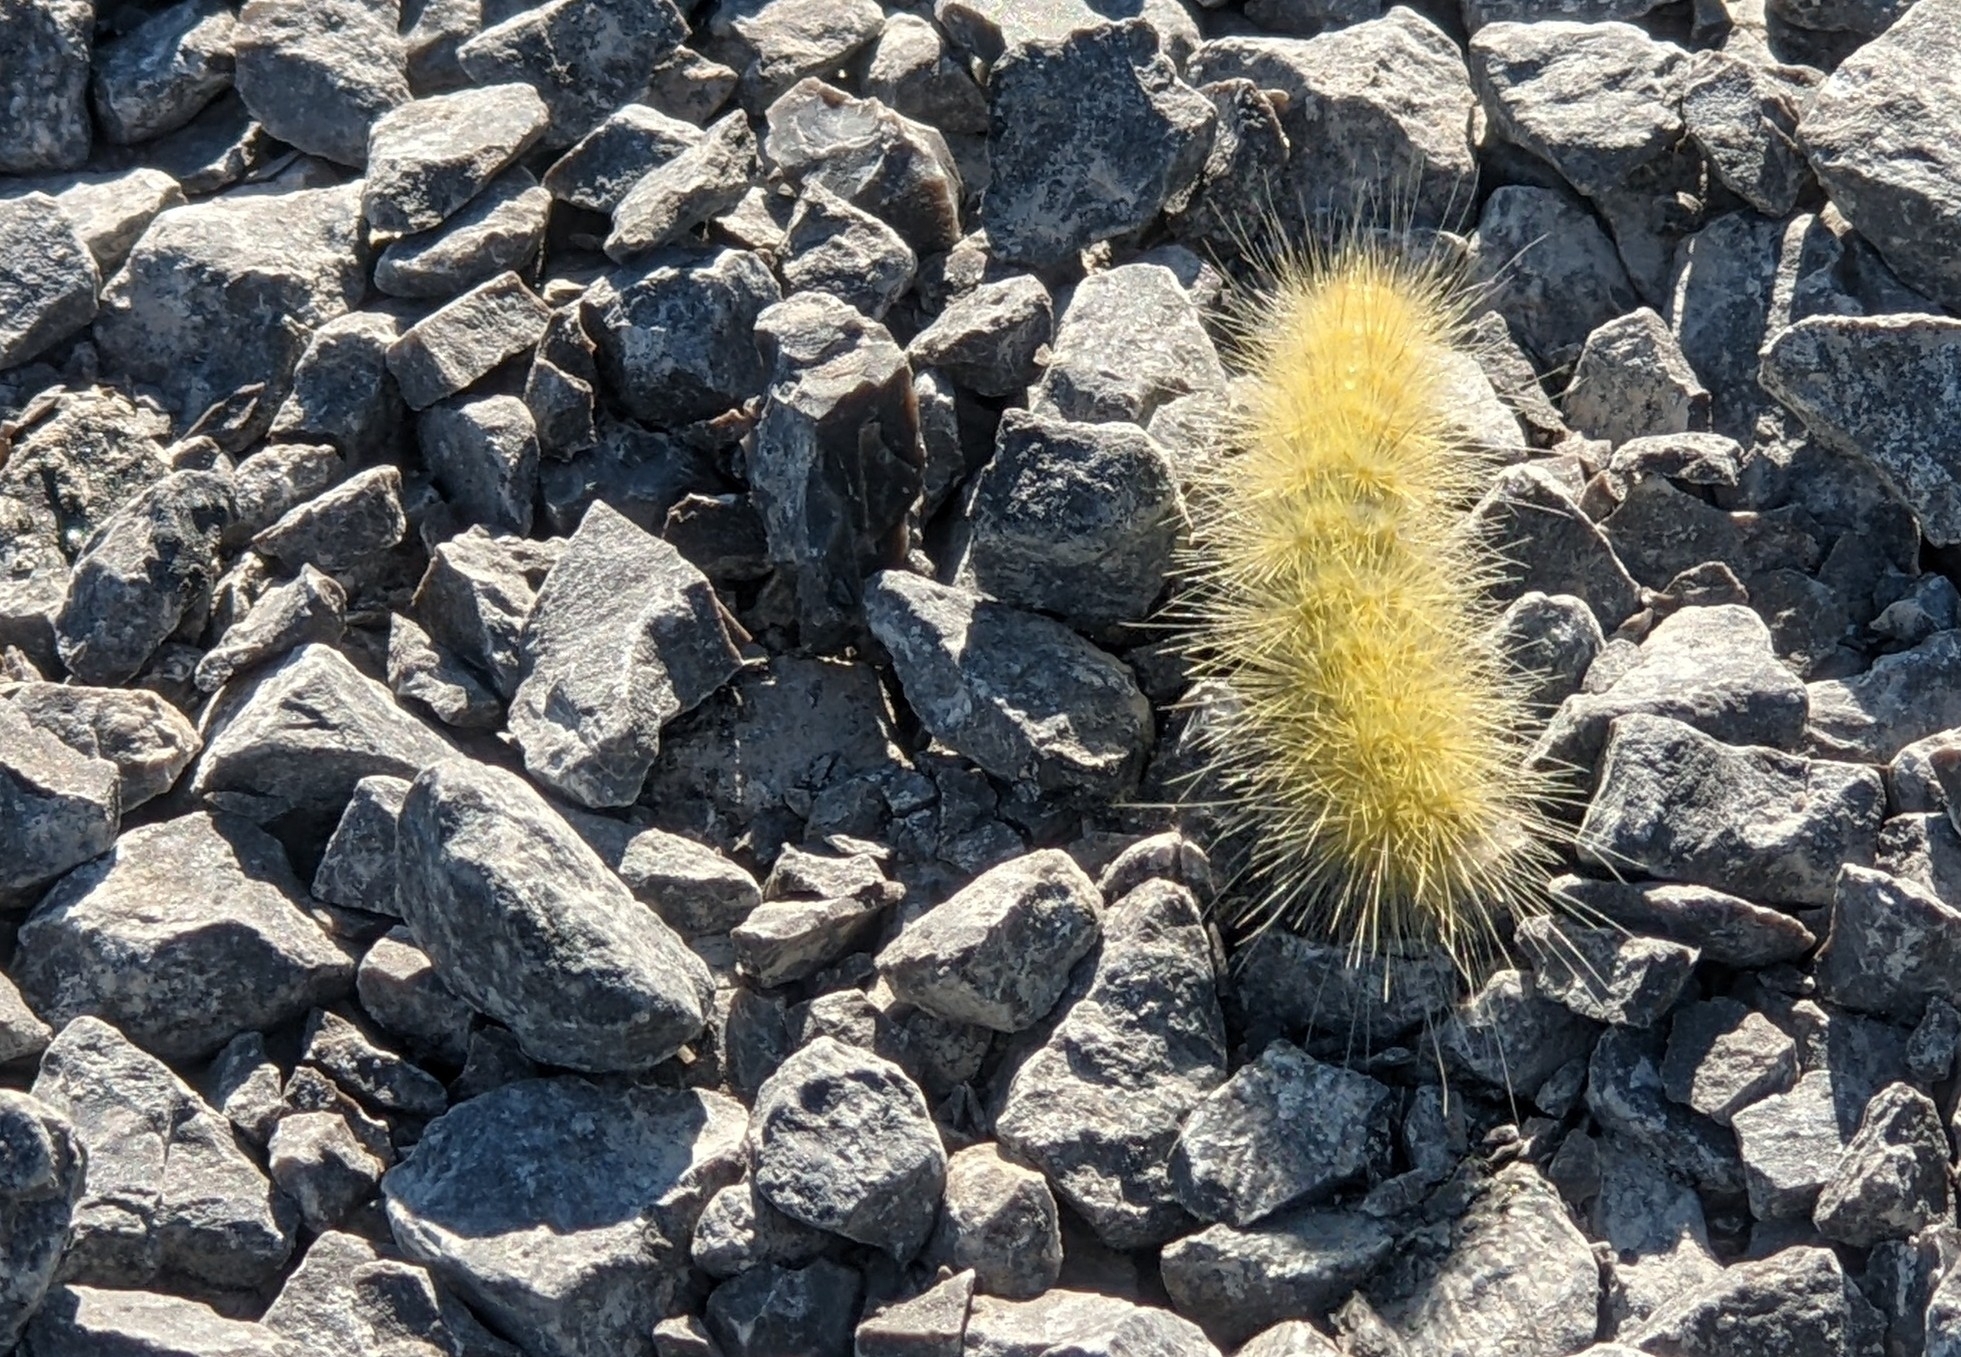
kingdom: Animalia
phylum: Arthropoda
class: Insecta
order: Lepidoptera
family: Erebidae
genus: Spilosoma
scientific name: Spilosoma virginica
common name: Virginia tiger moth
